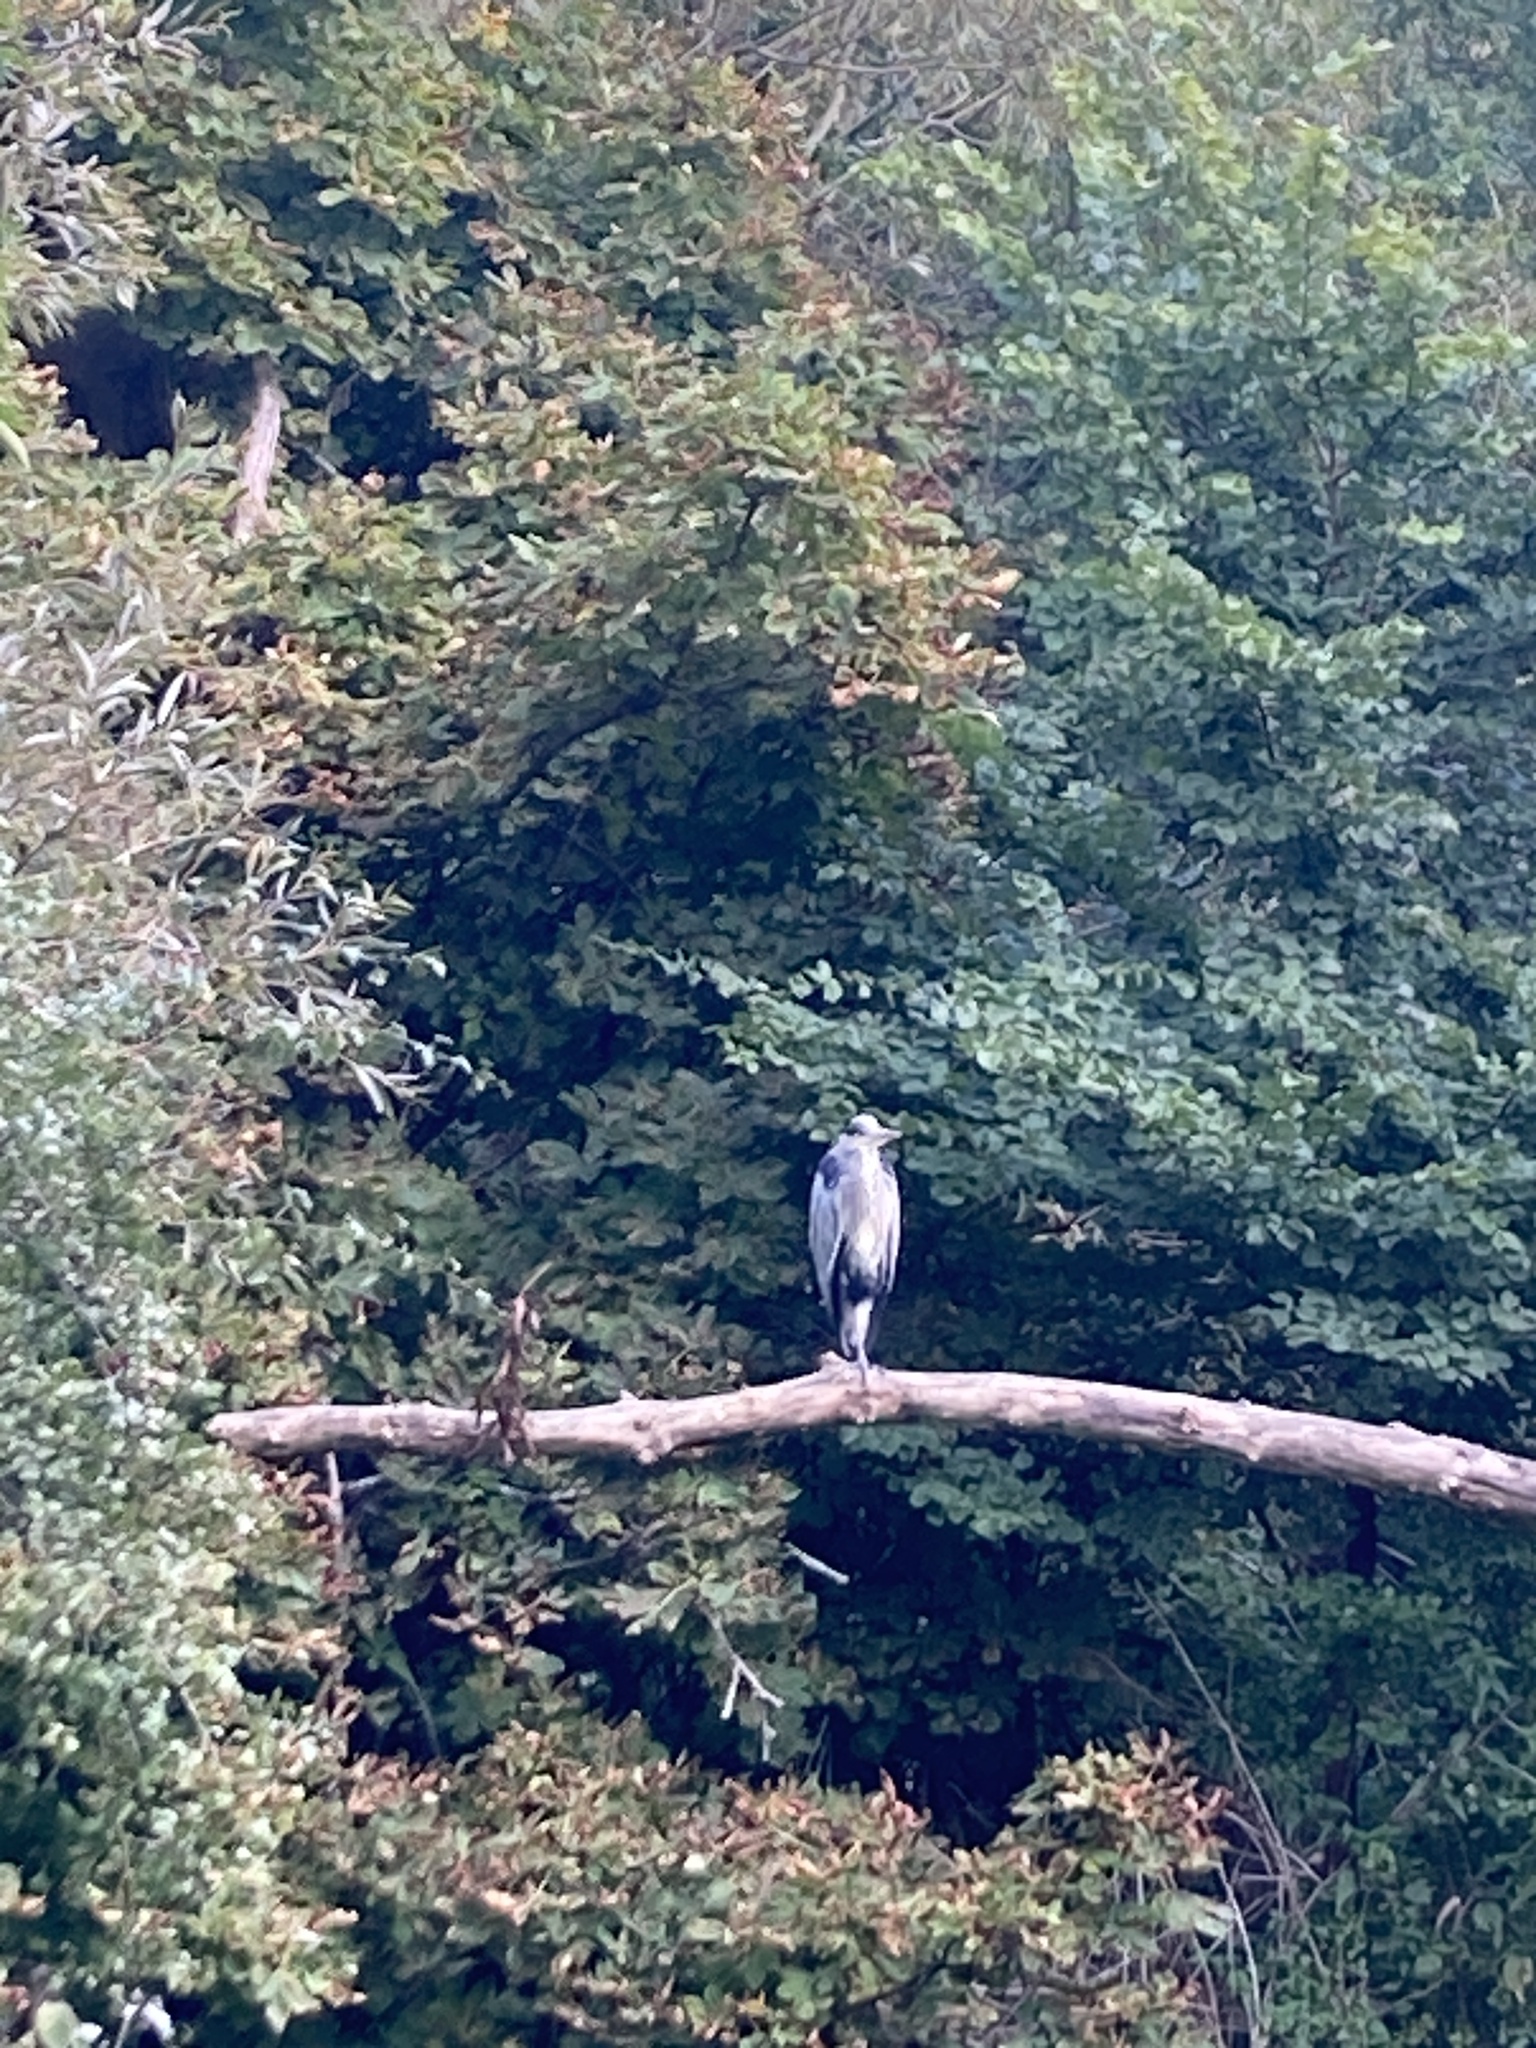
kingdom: Animalia
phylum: Chordata
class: Aves
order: Pelecaniformes
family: Ardeidae
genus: Ardea
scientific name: Ardea cinerea
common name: Grey heron
